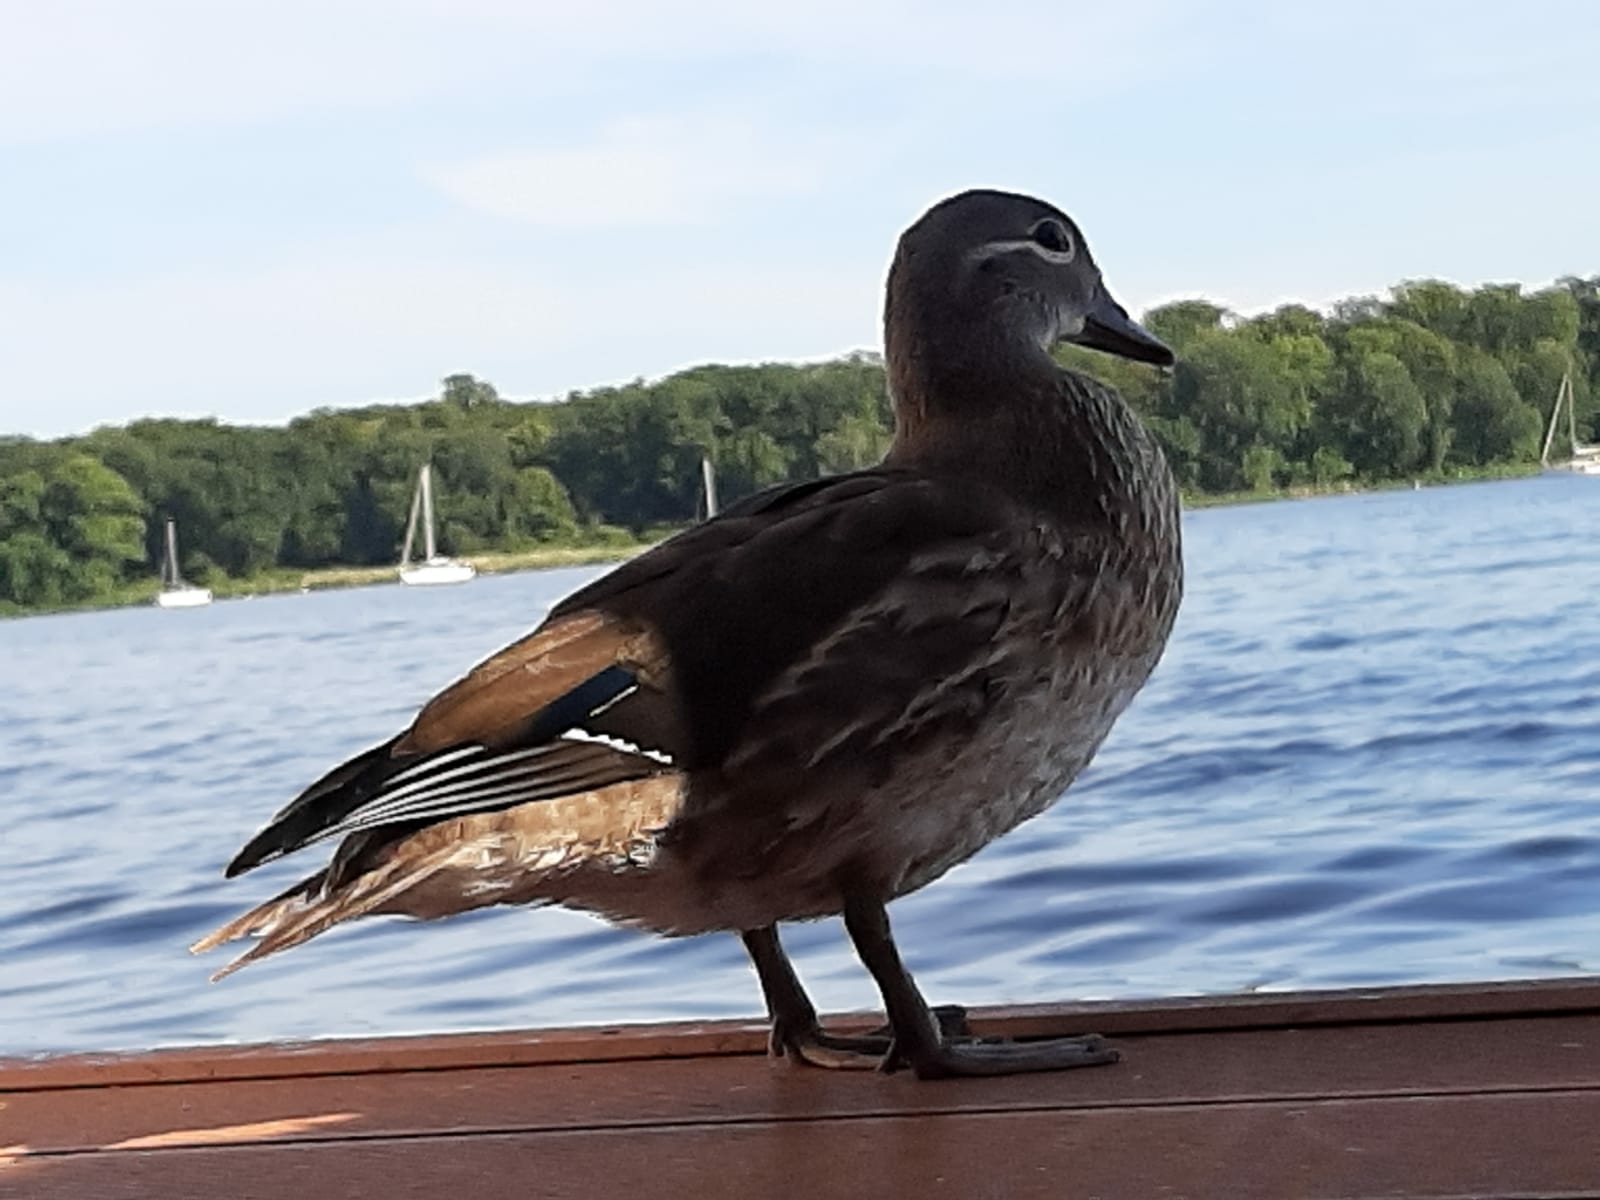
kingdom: Animalia
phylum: Chordata
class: Aves
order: Anseriformes
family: Anatidae
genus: Aix
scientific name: Aix galericulata
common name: Mandarin duck
